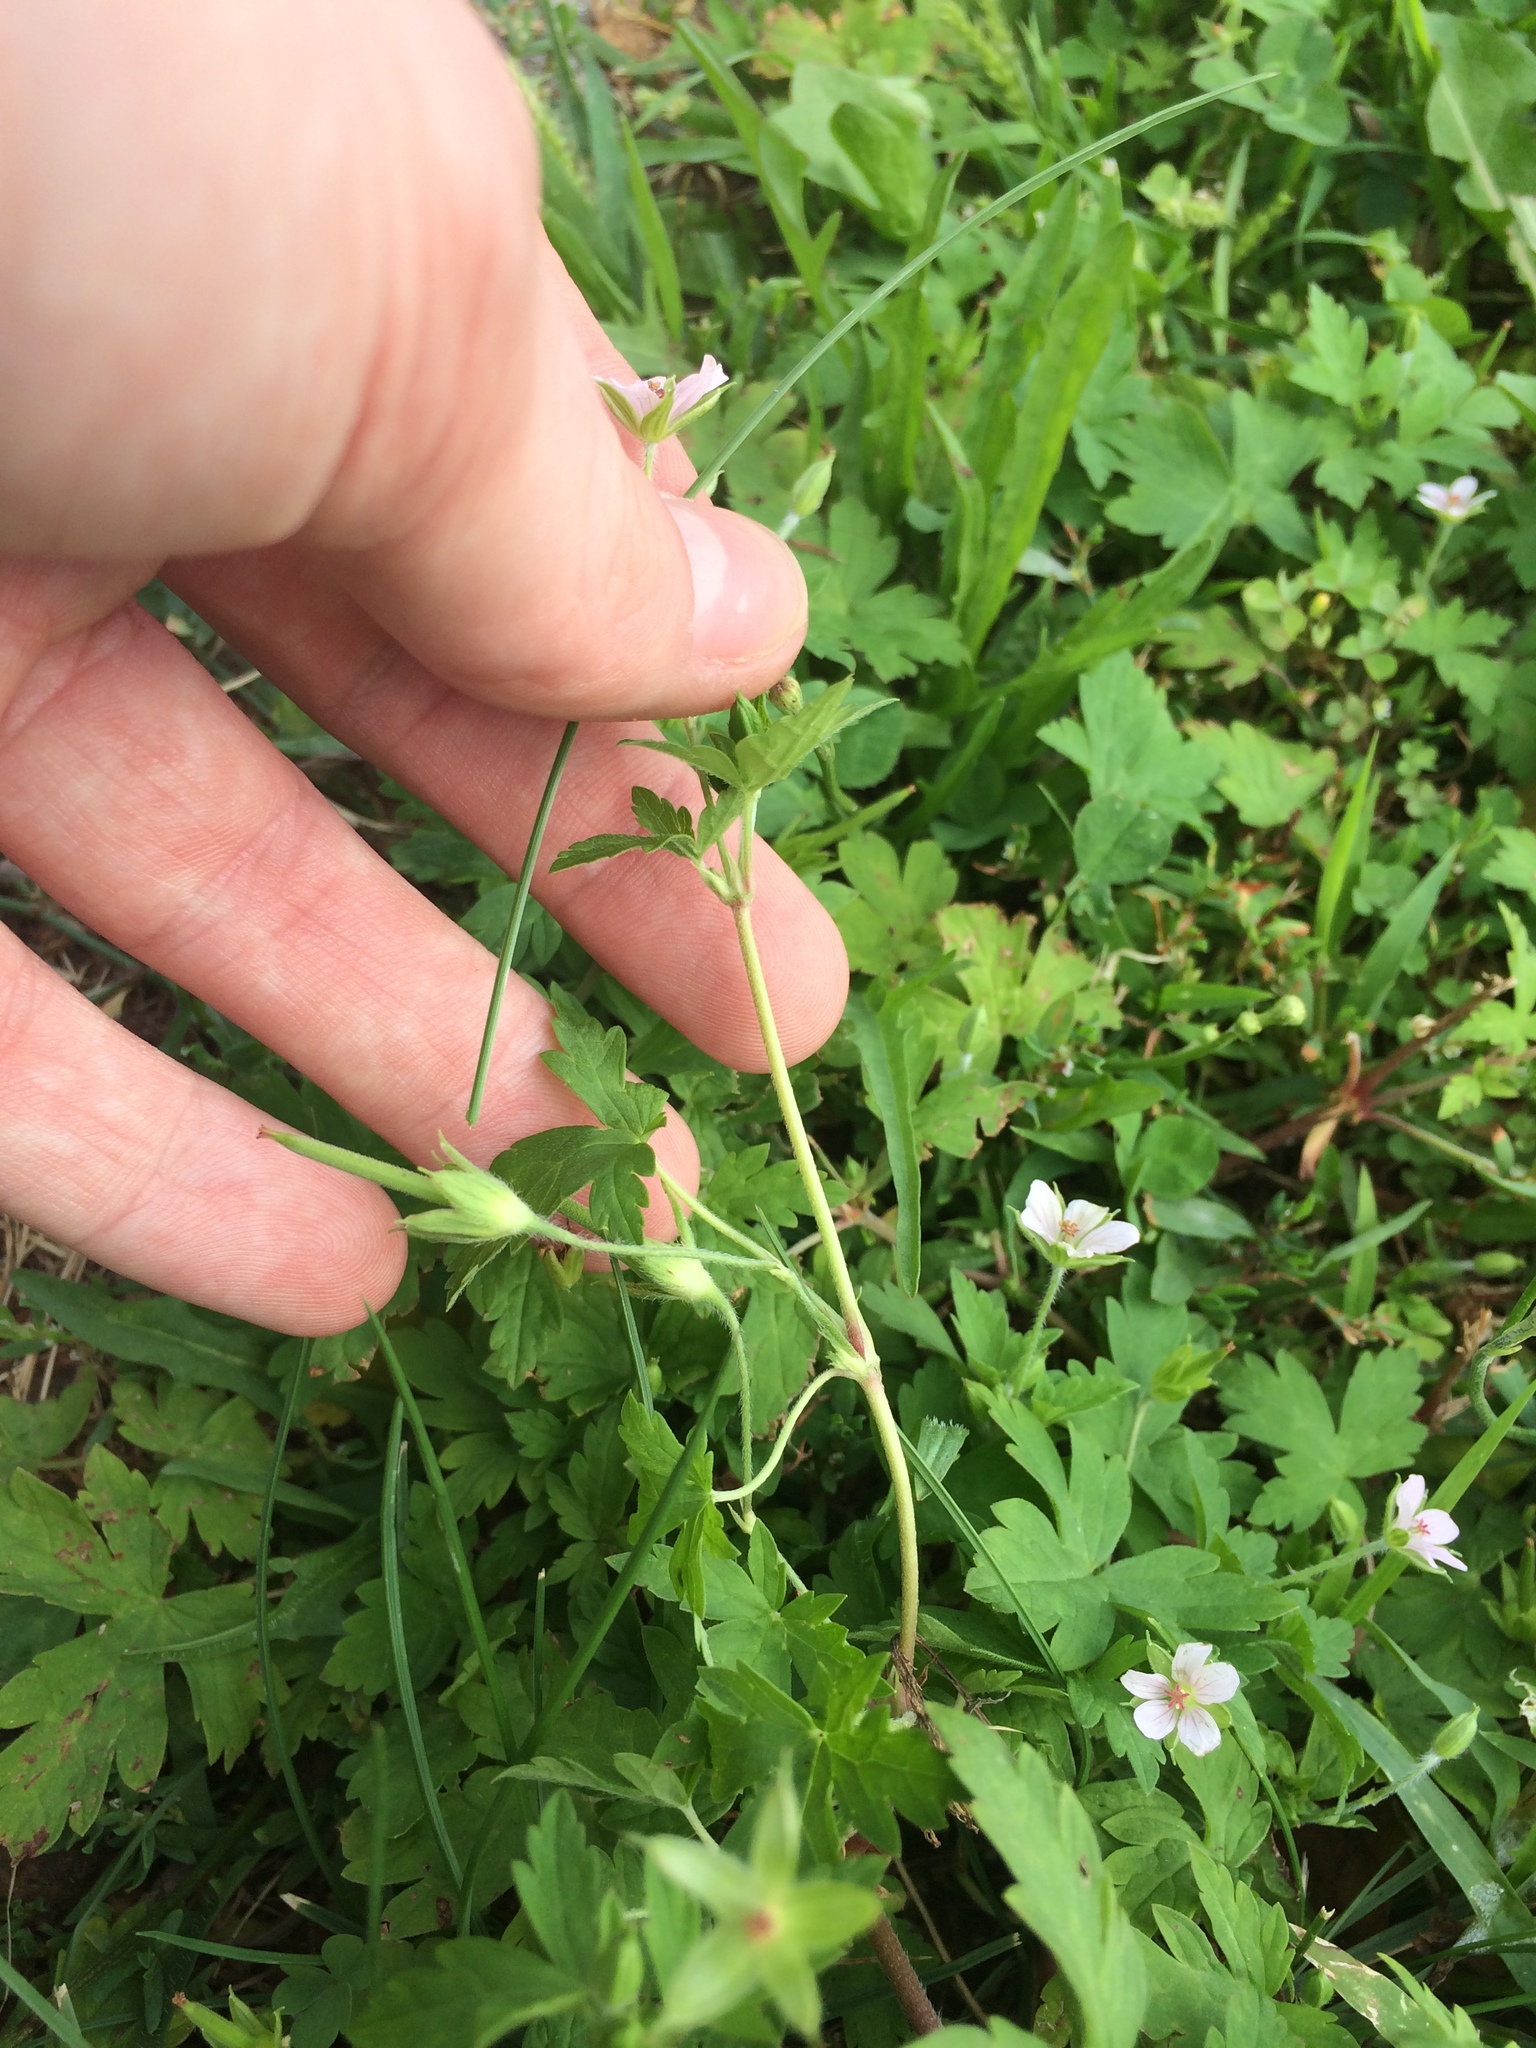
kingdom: Plantae
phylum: Tracheophyta
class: Magnoliopsida
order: Geraniales
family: Geraniaceae
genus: Geranium
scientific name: Geranium sibiricum
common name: Siberian crane's-bill
